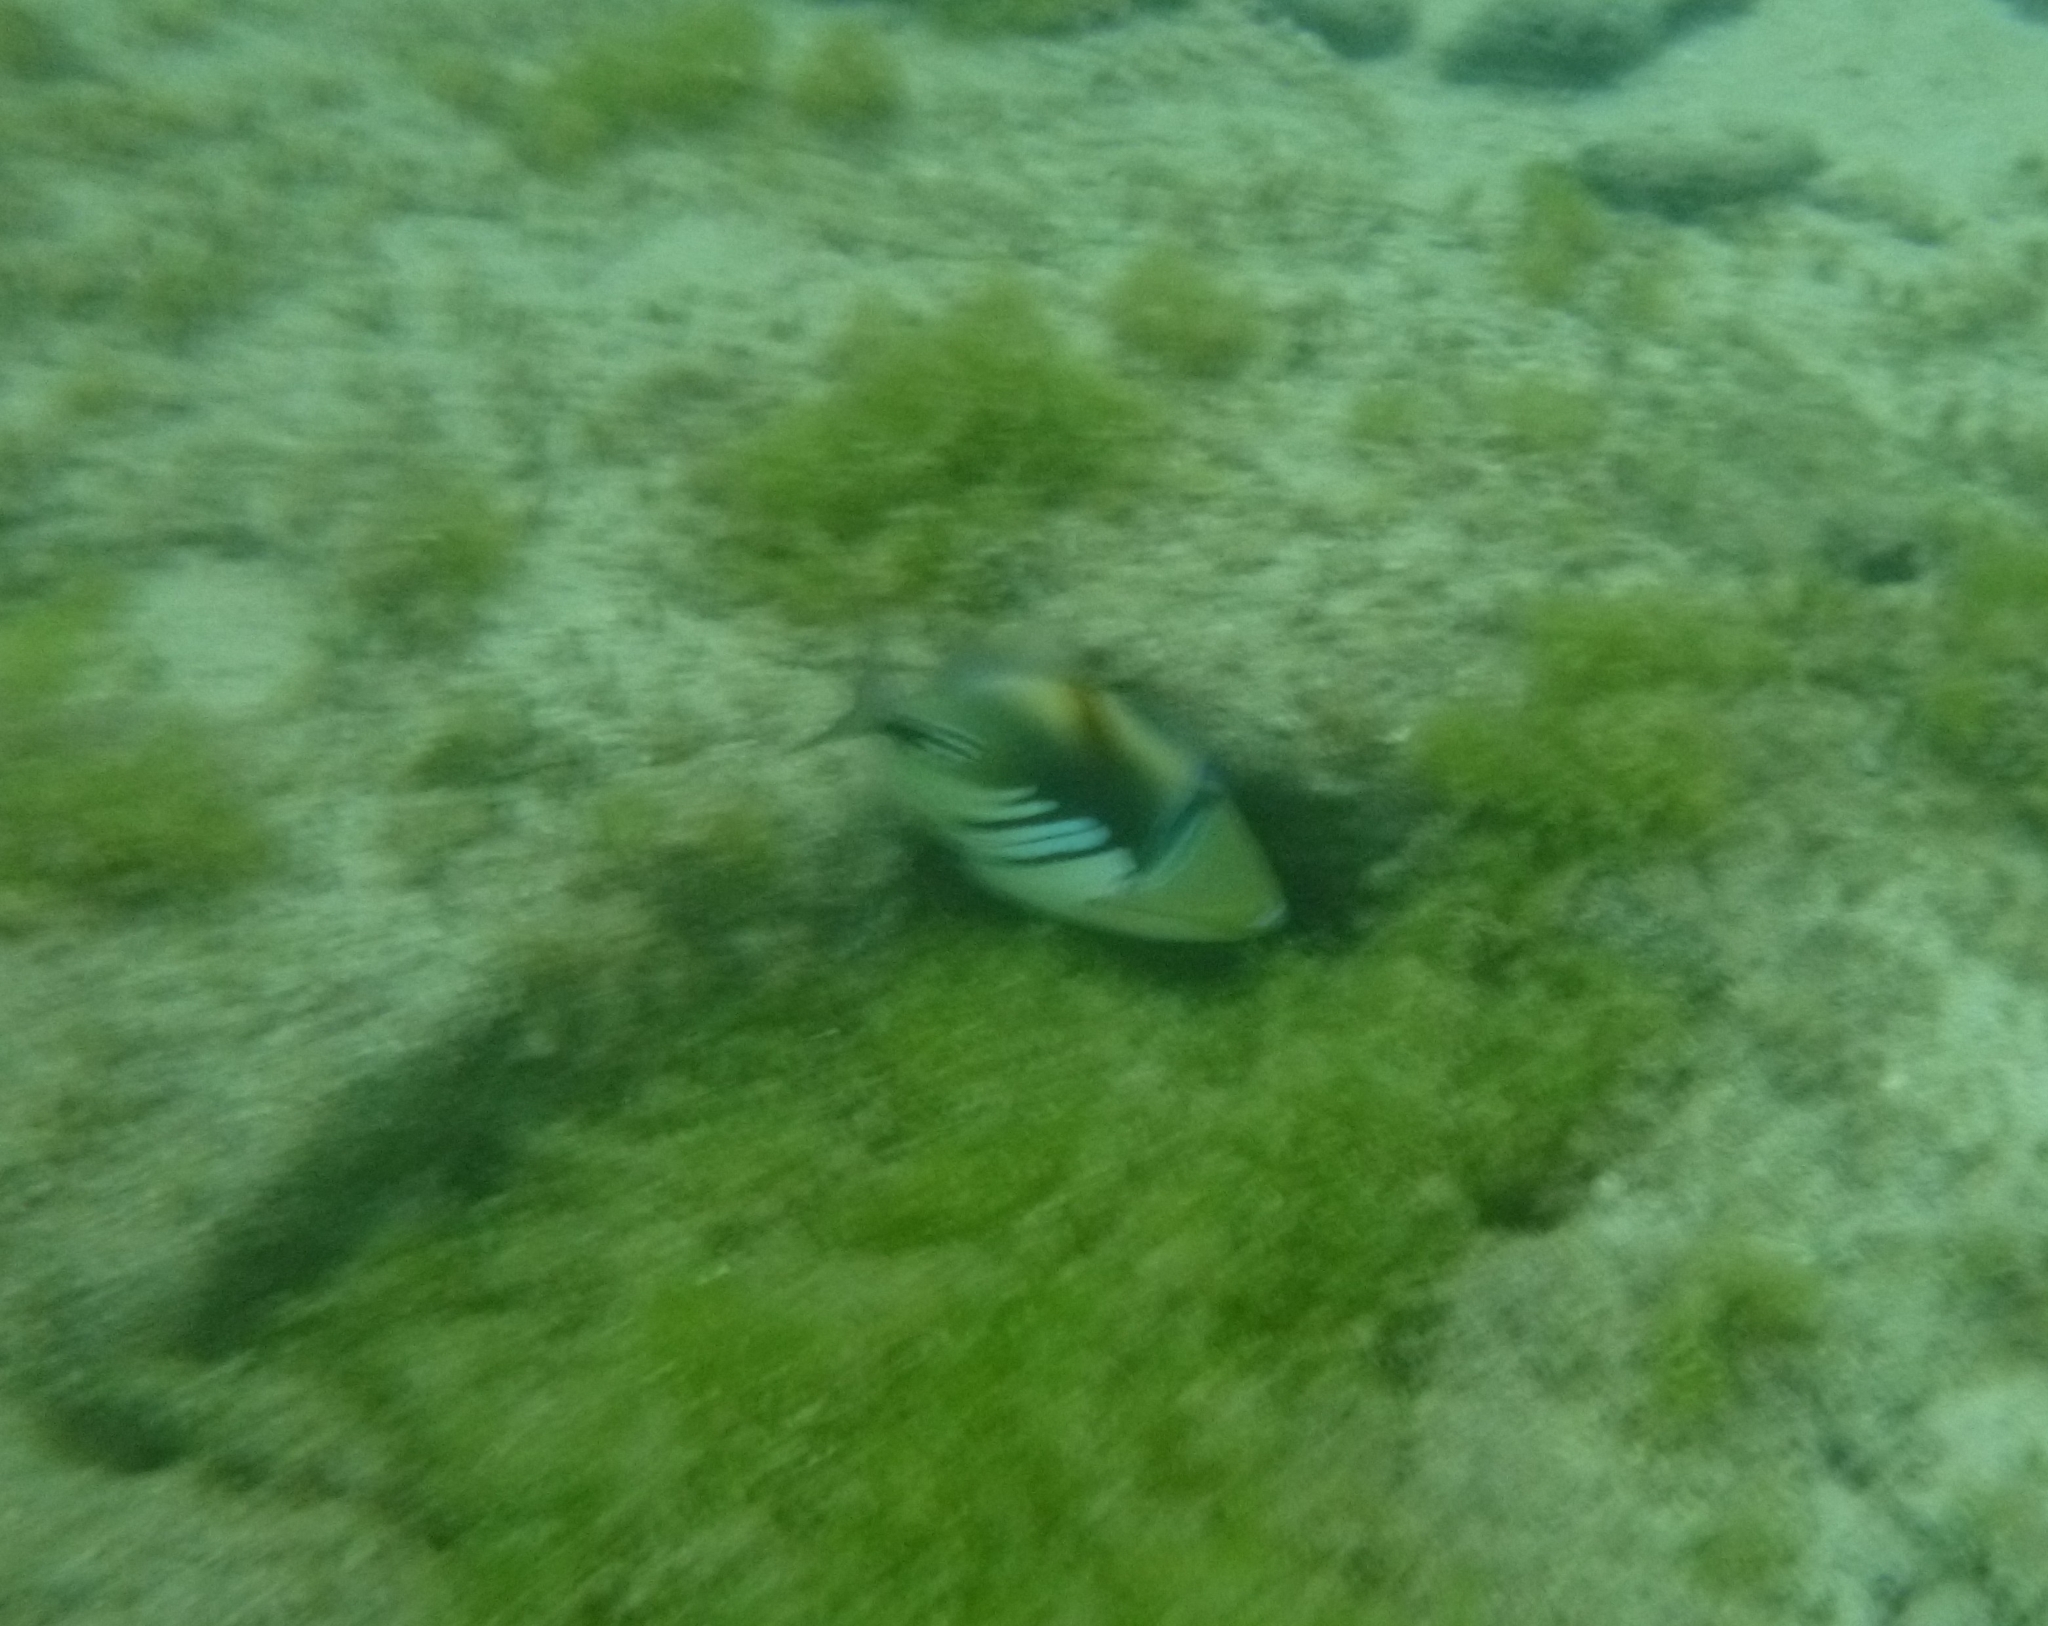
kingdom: Animalia
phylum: Chordata
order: Tetraodontiformes
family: Balistidae
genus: Rhinecanthus
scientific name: Rhinecanthus aculeatus
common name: White-banded triggerfish
